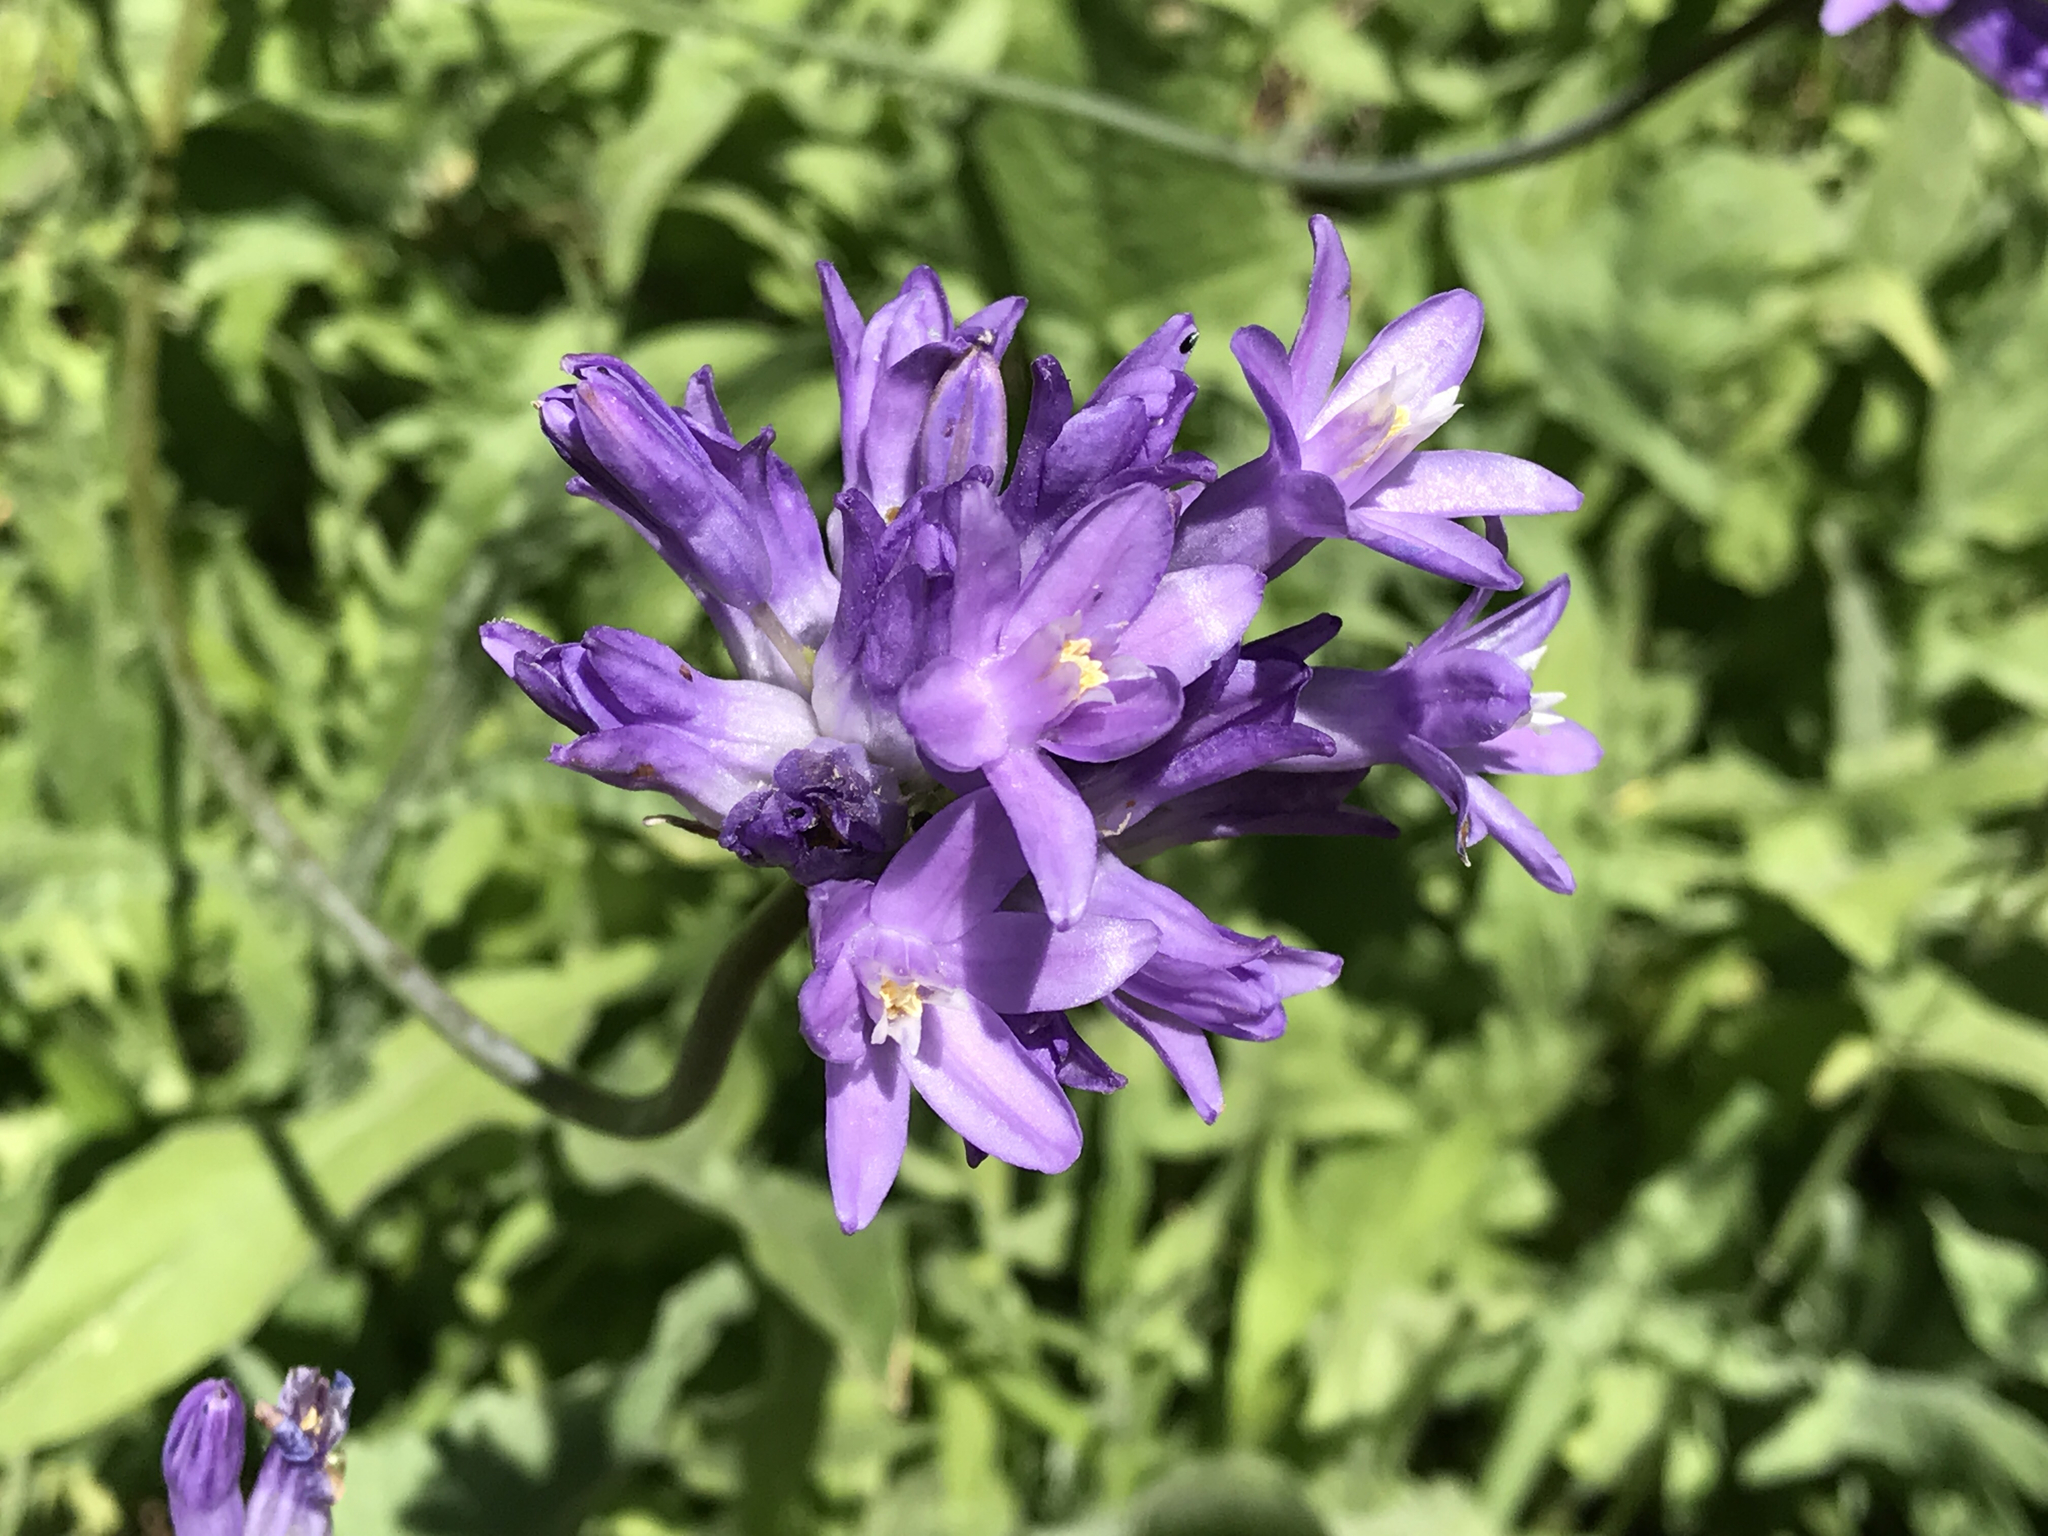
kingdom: Plantae
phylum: Tracheophyta
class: Liliopsida
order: Asparagales
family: Asparagaceae
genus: Dipterostemon
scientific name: Dipterostemon capitatus
